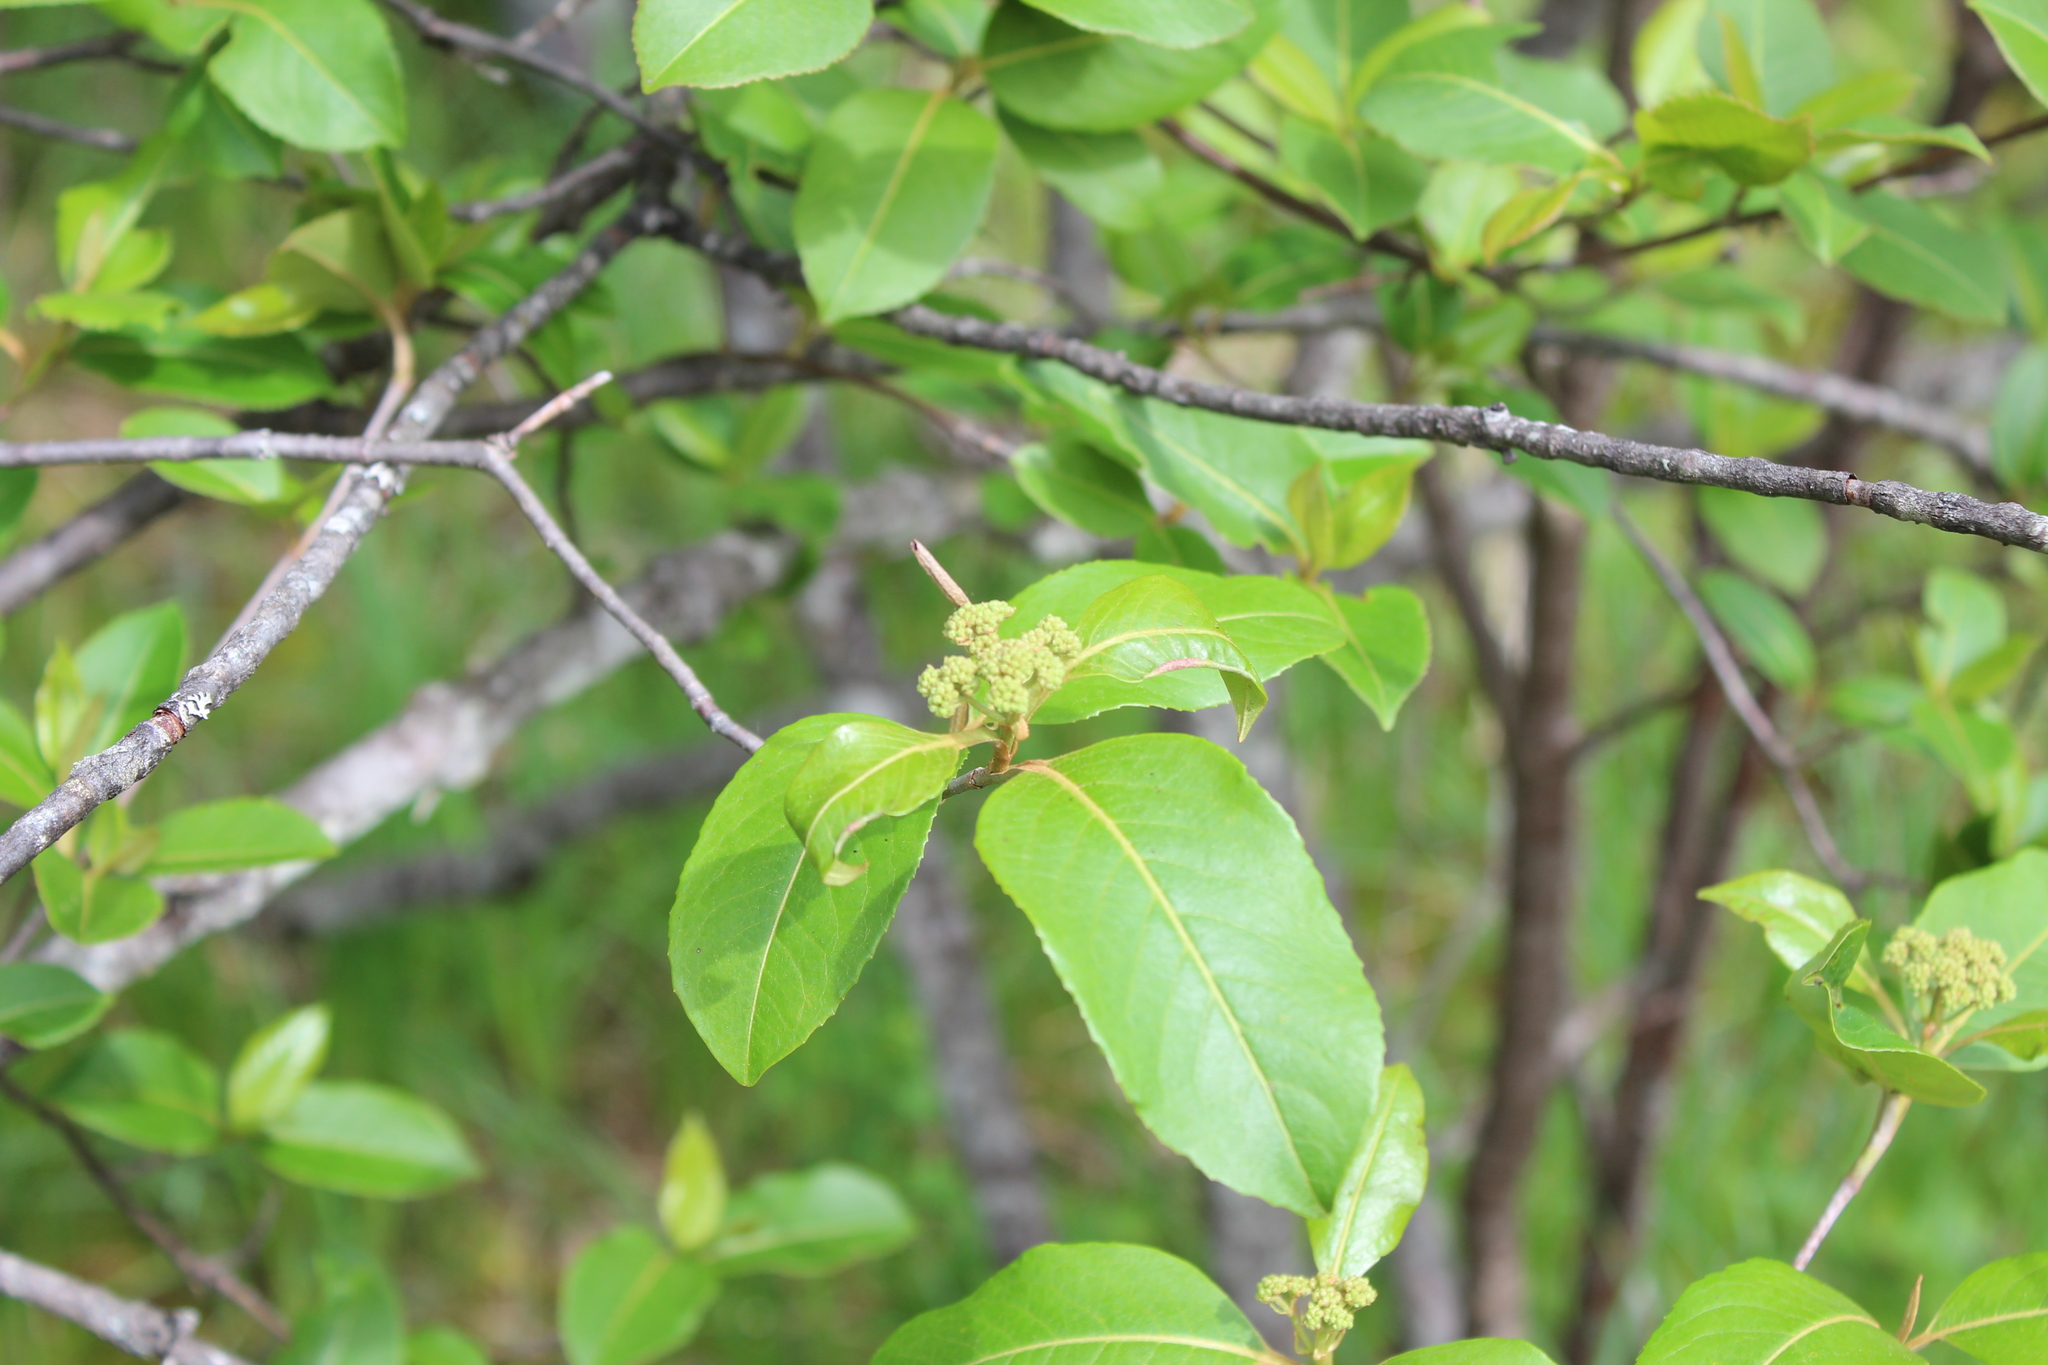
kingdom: Plantae
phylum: Tracheophyta
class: Magnoliopsida
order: Dipsacales
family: Viburnaceae
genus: Viburnum
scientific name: Viburnum cassinoides
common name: Swamp haw
